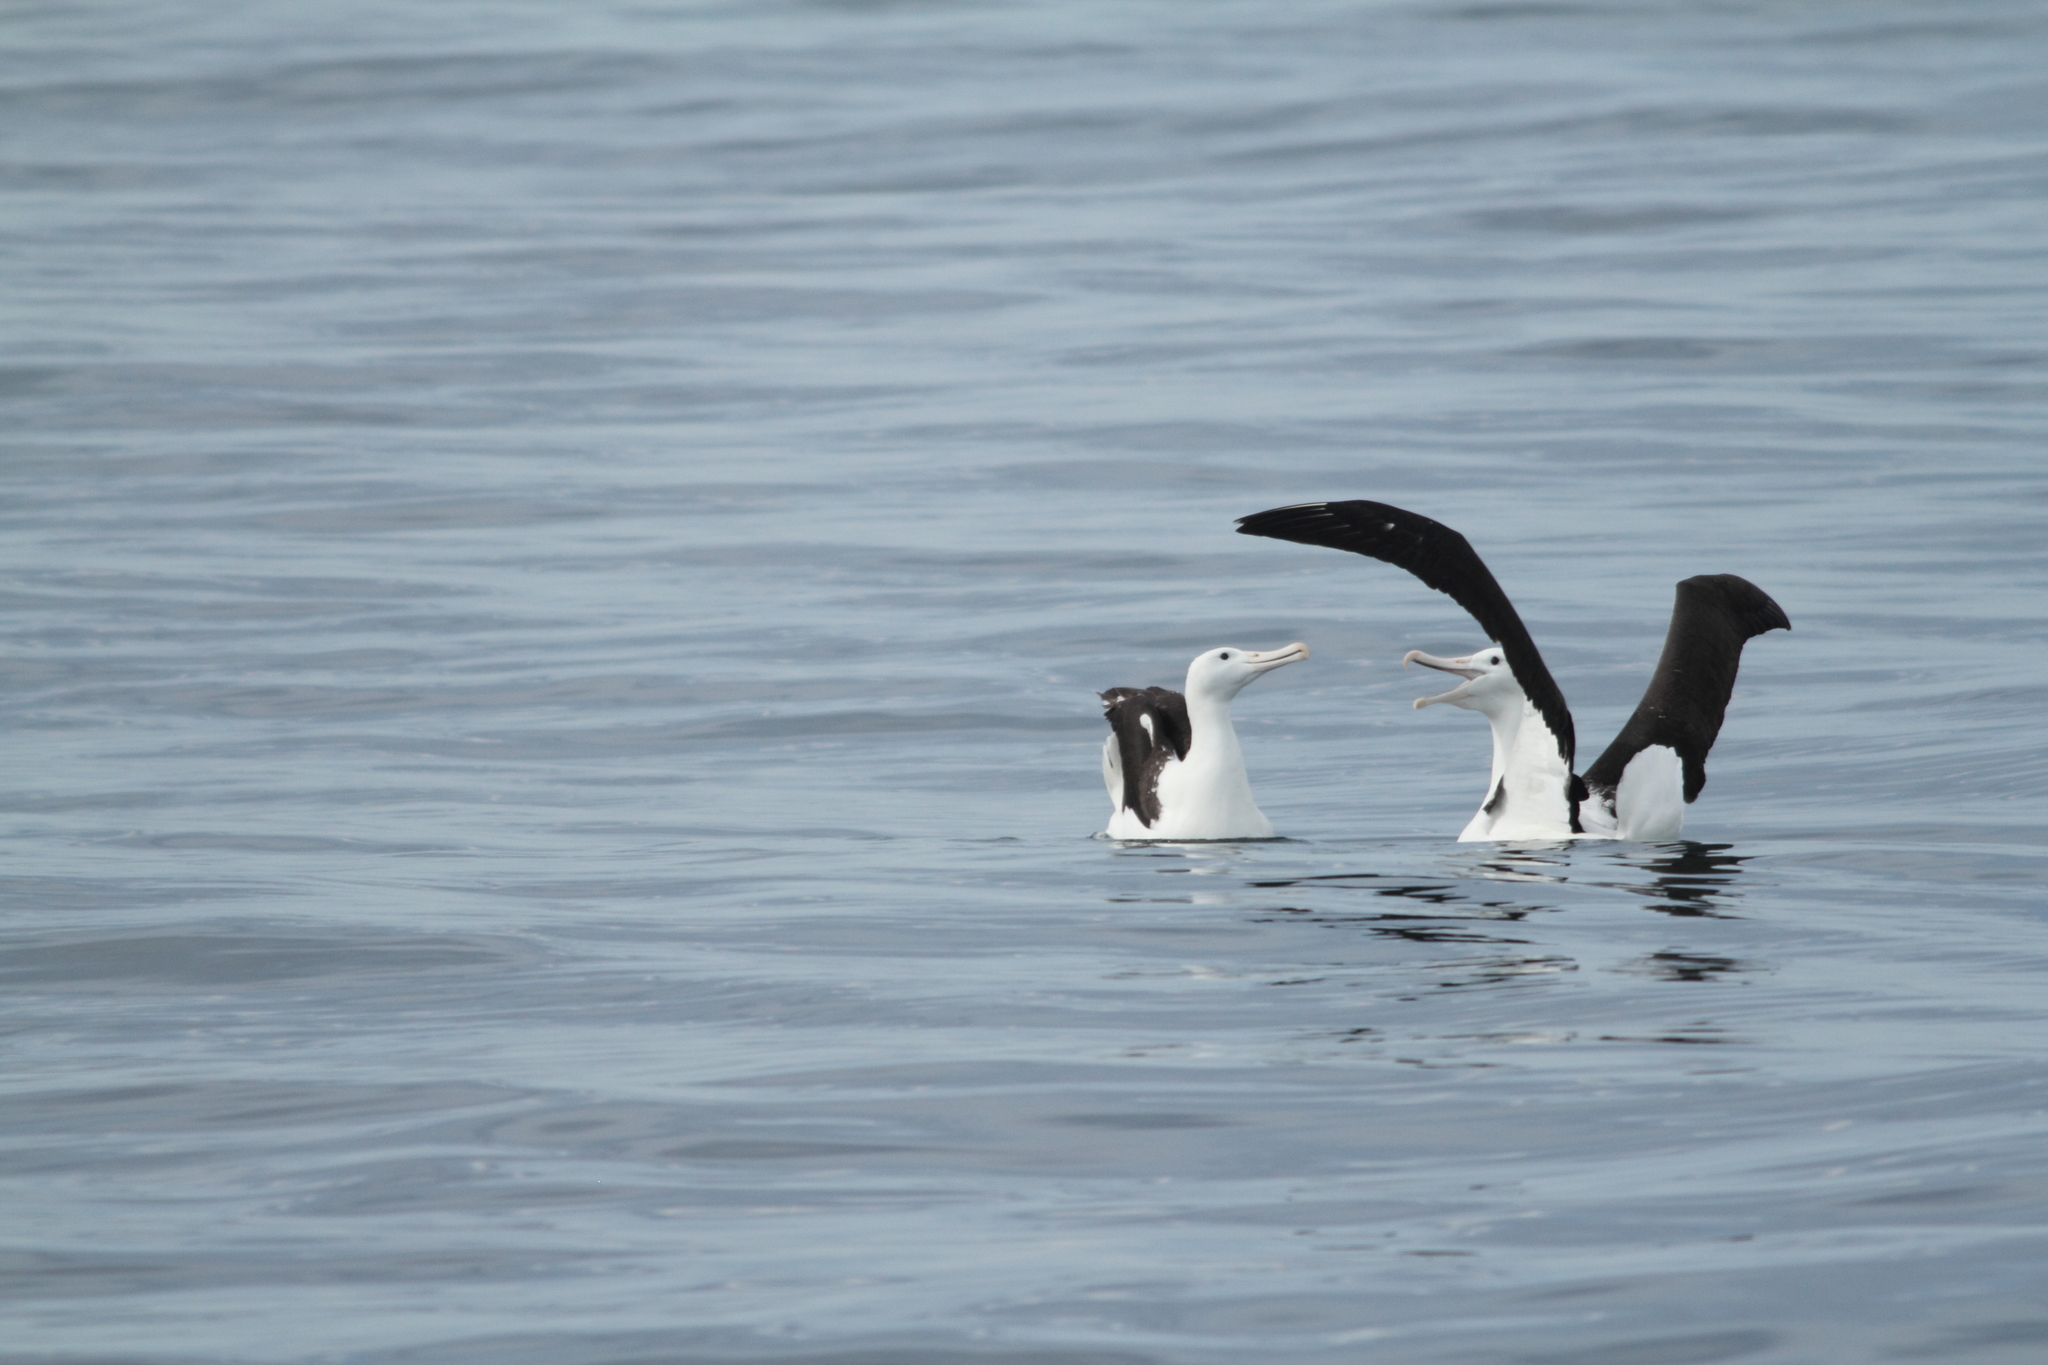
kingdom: Animalia
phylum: Chordata
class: Aves
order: Procellariiformes
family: Diomedeidae
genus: Diomedea
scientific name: Diomedea sanfordi
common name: Northern royal albatross
